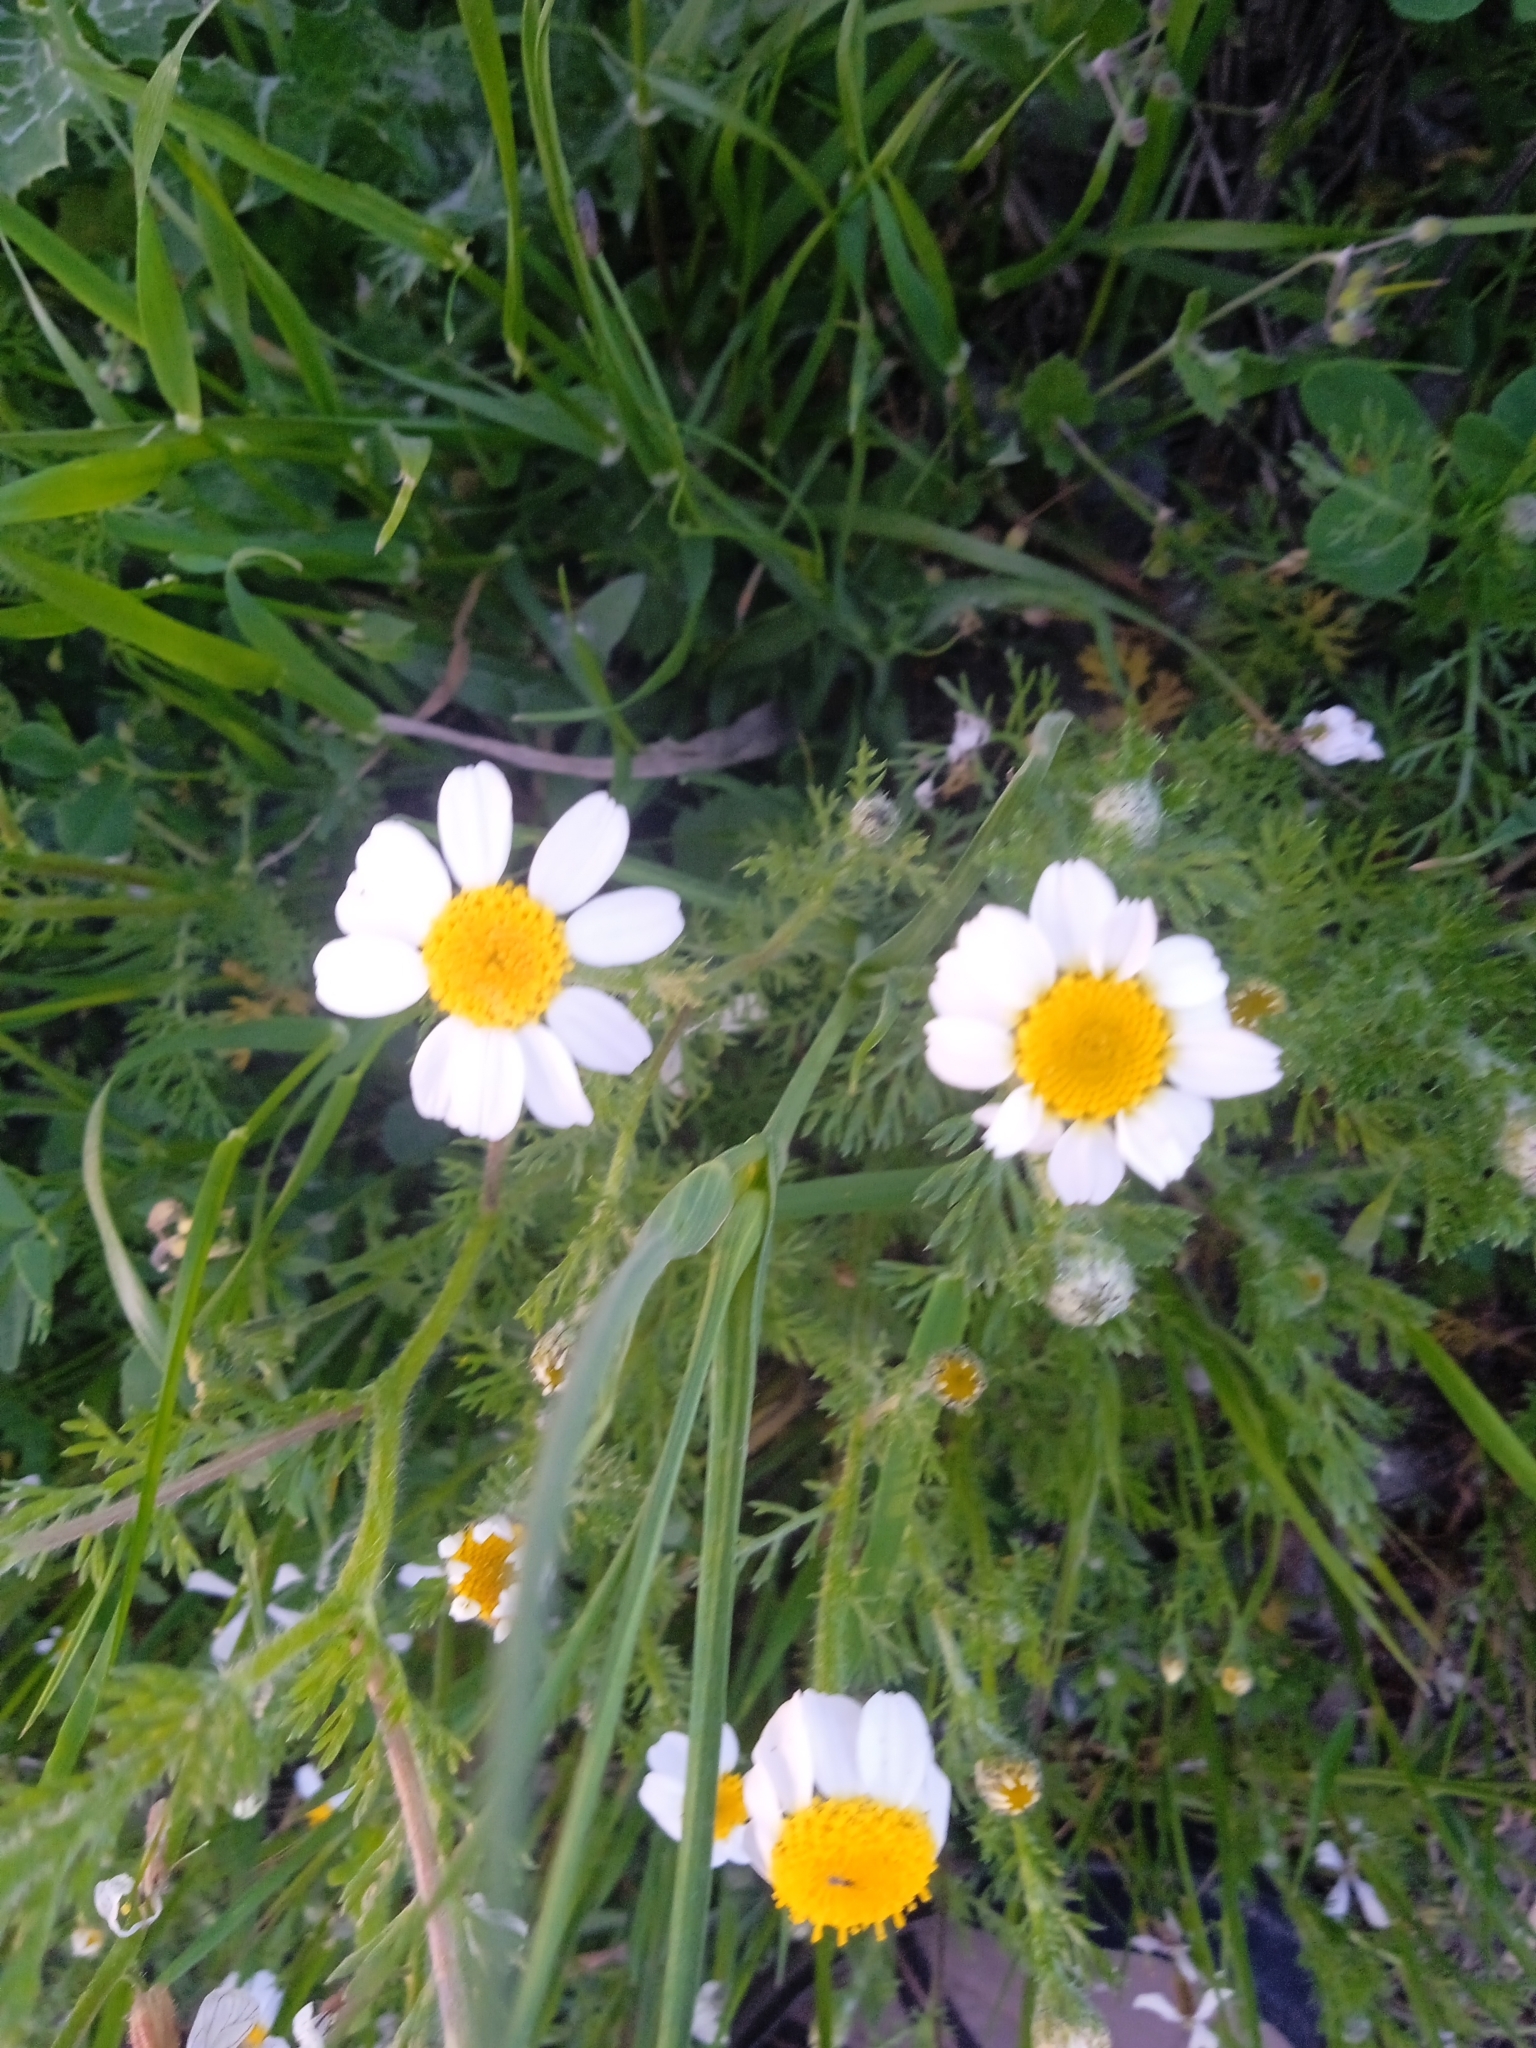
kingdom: Plantae
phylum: Tracheophyta
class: Magnoliopsida
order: Asterales
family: Asteraceae
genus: Anacyclus
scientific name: Anacyclus clavatus
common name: Whitebuttons
